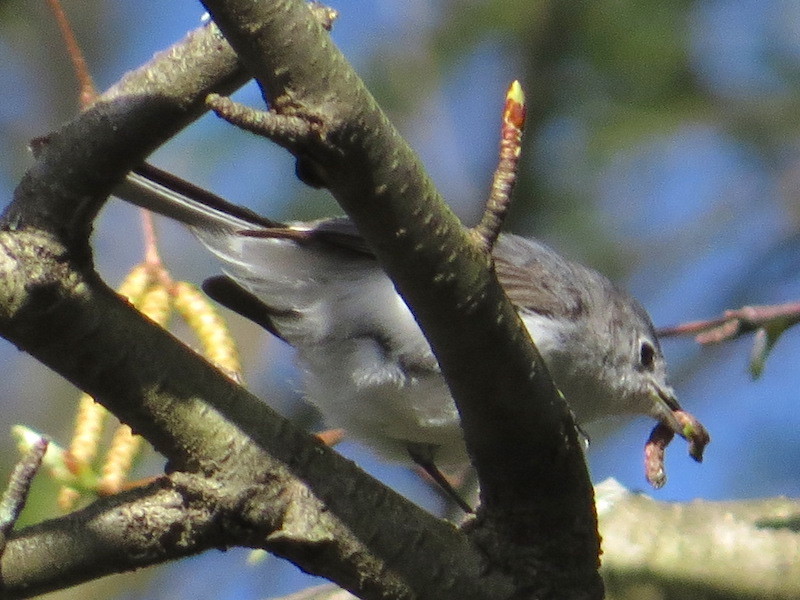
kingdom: Animalia
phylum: Chordata
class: Aves
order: Passeriformes
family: Polioptilidae
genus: Polioptila
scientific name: Polioptila caerulea
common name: Blue-gray gnatcatcher
